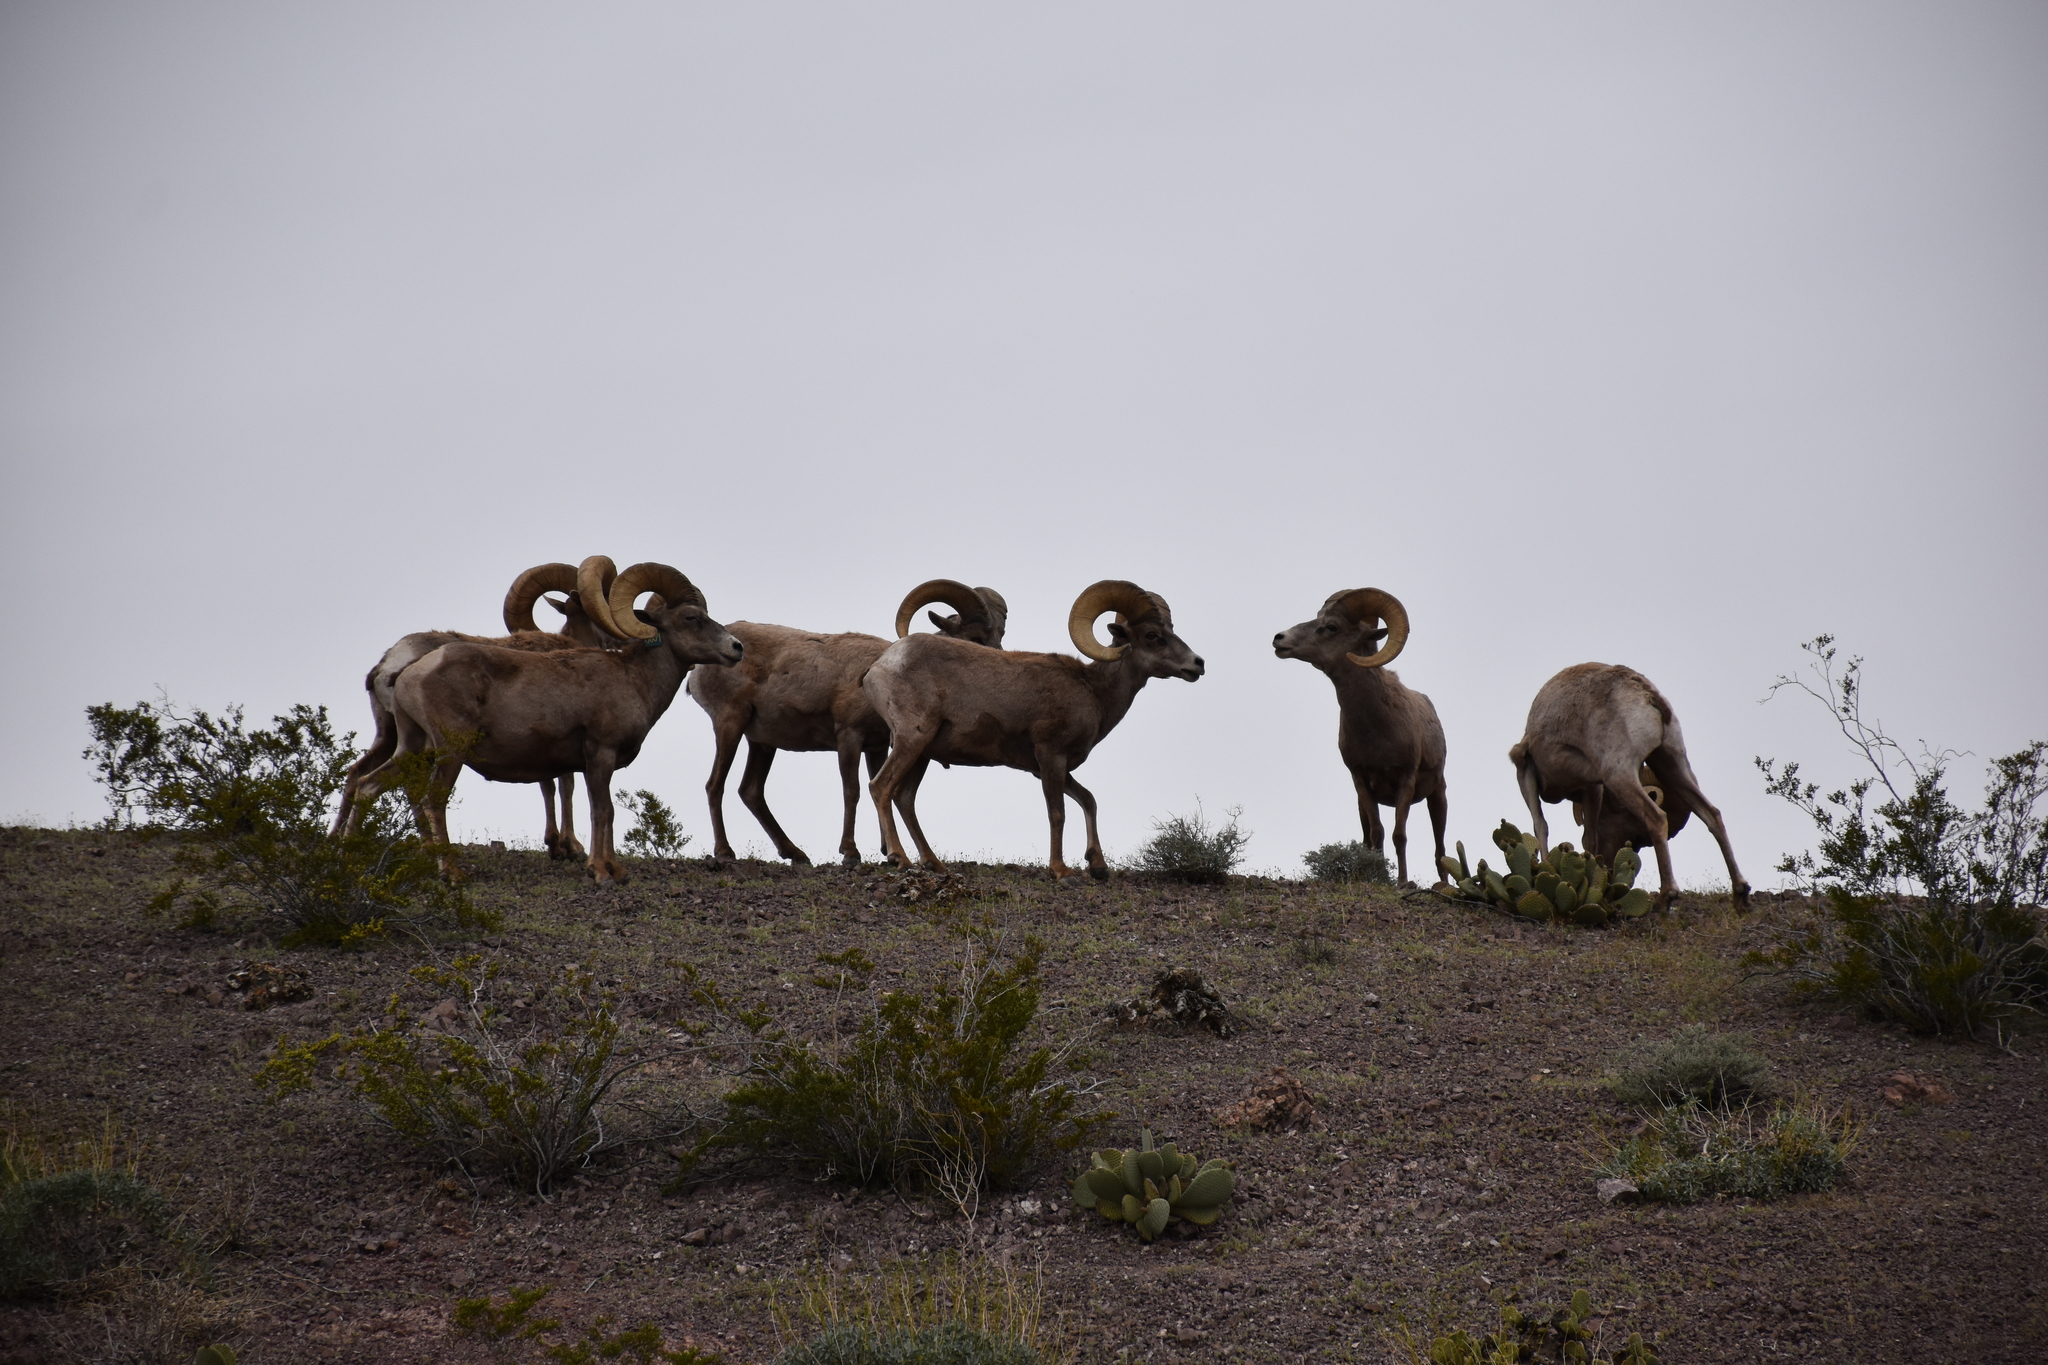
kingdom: Animalia
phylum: Chordata
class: Mammalia
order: Artiodactyla
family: Bovidae
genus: Ovis
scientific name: Ovis canadensis
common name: Bighorn sheep
